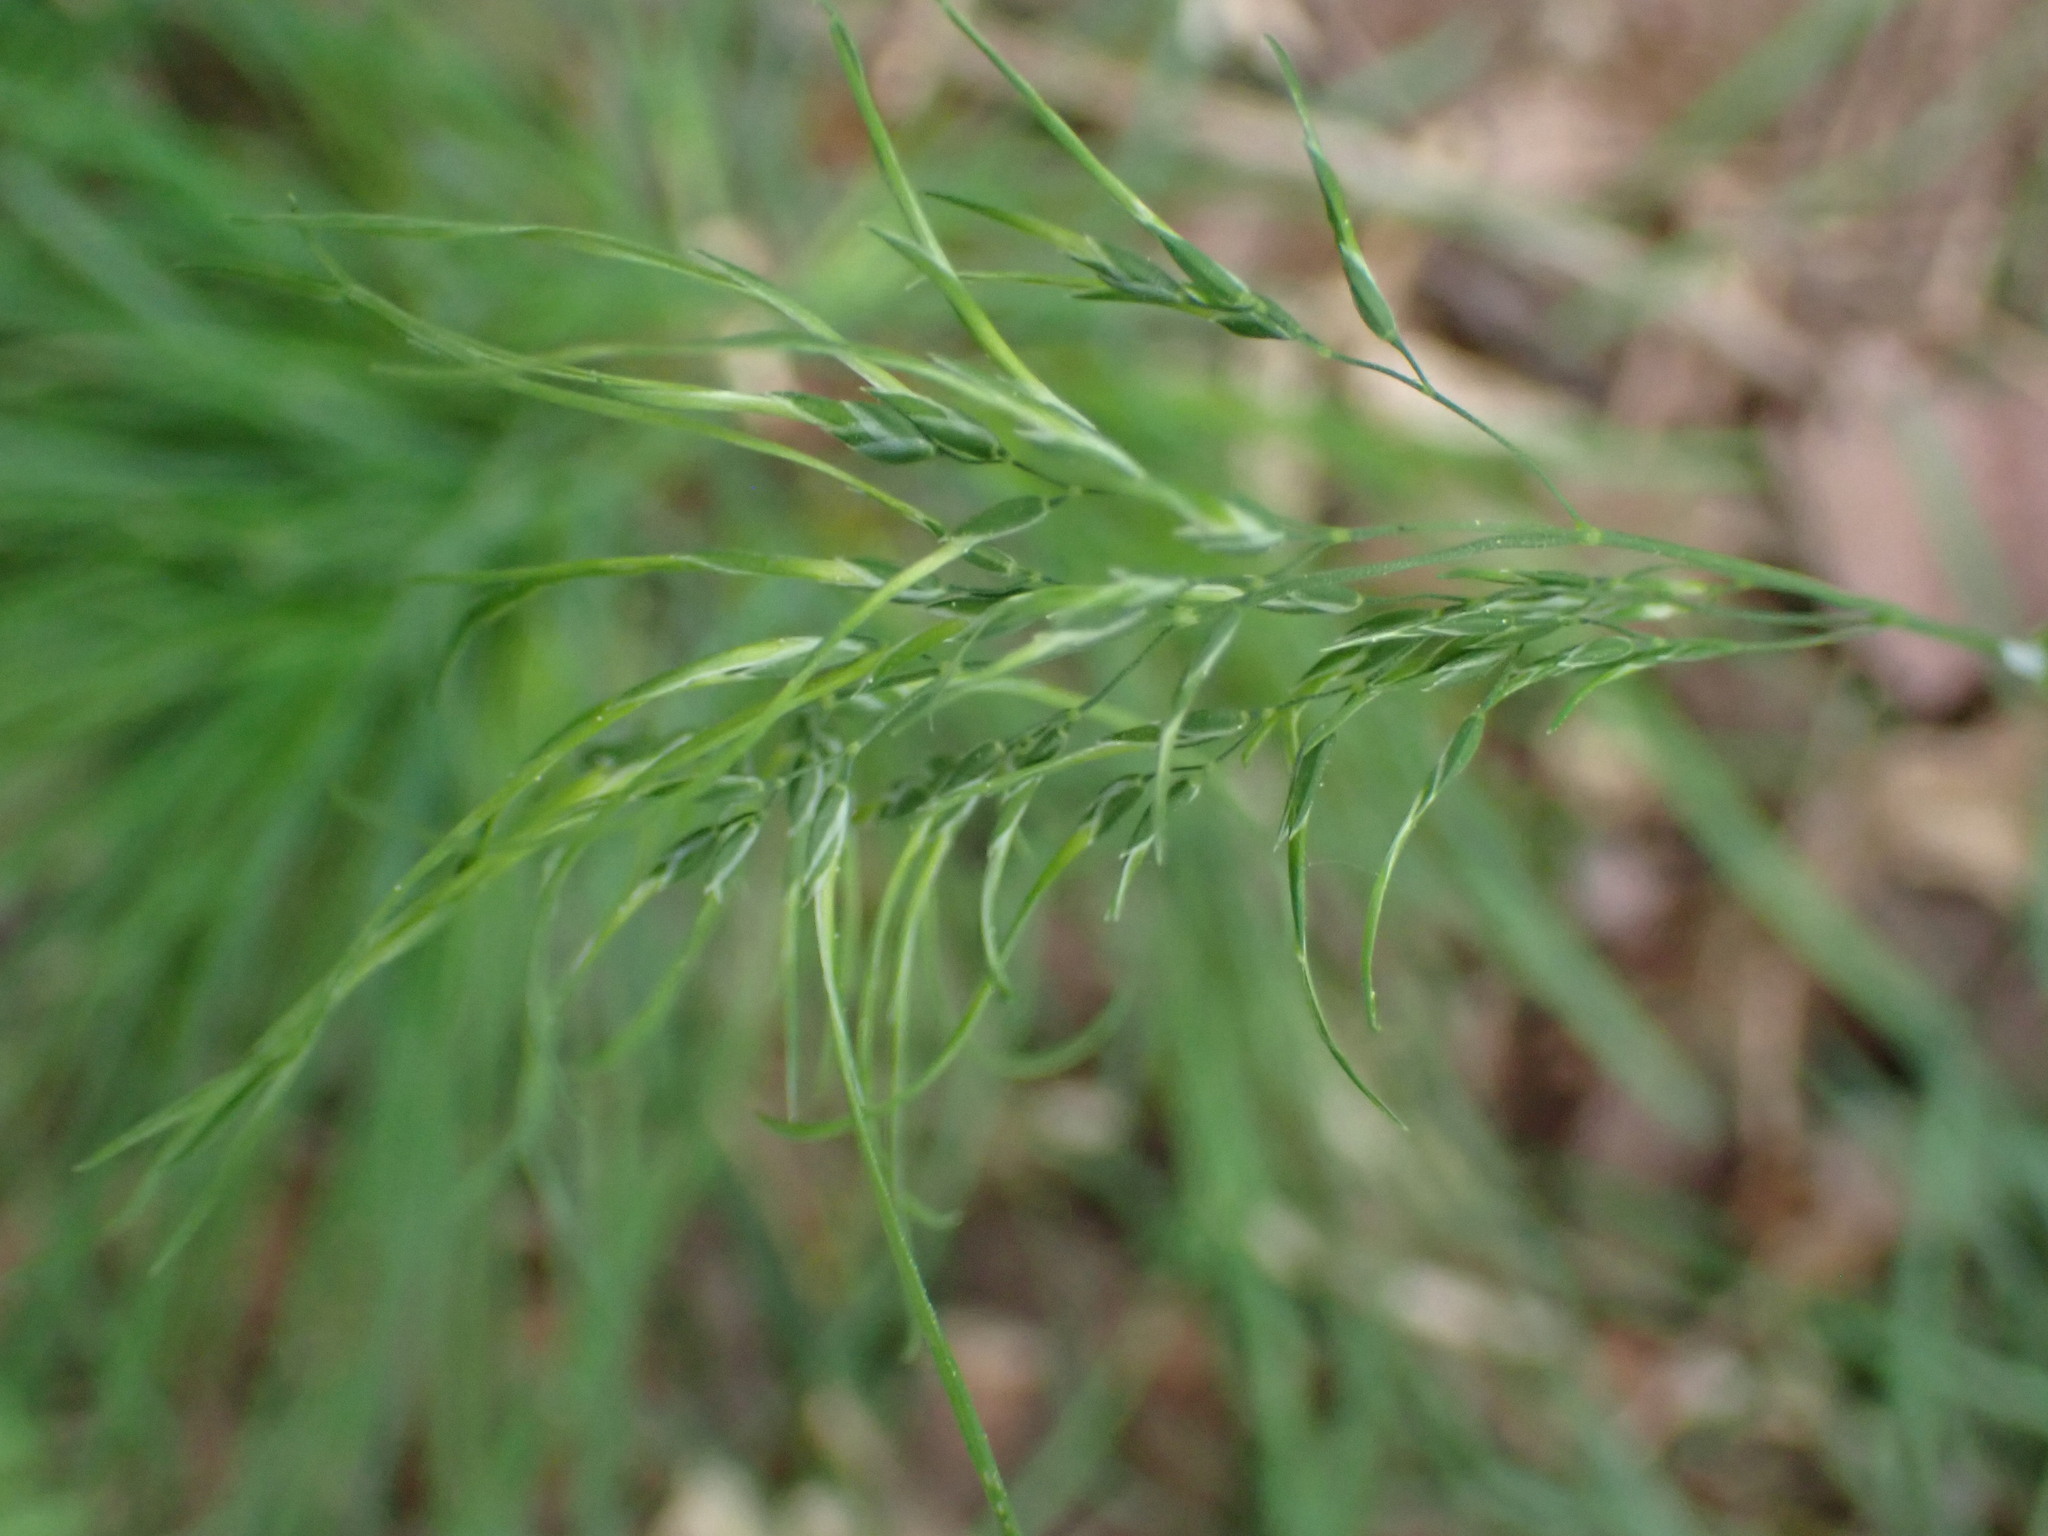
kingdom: Plantae
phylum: Tracheophyta
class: Liliopsida
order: Poales
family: Poaceae
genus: Poa
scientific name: Poa bulbosa
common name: Bulbous bluegrass
